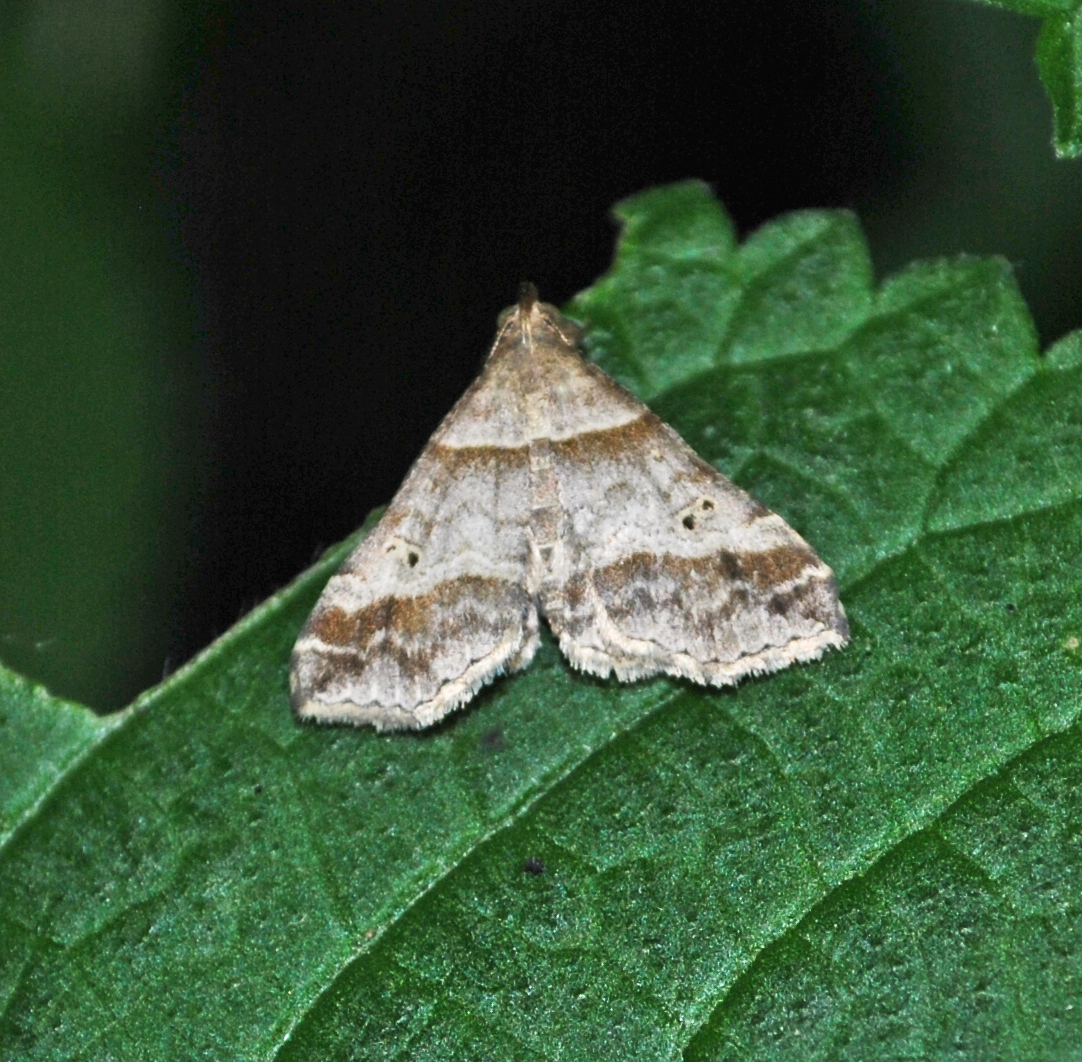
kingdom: Animalia
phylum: Arthropoda
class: Insecta
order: Lepidoptera
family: Erebidae
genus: Phaeolita
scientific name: Phaeolita pyramusalis
